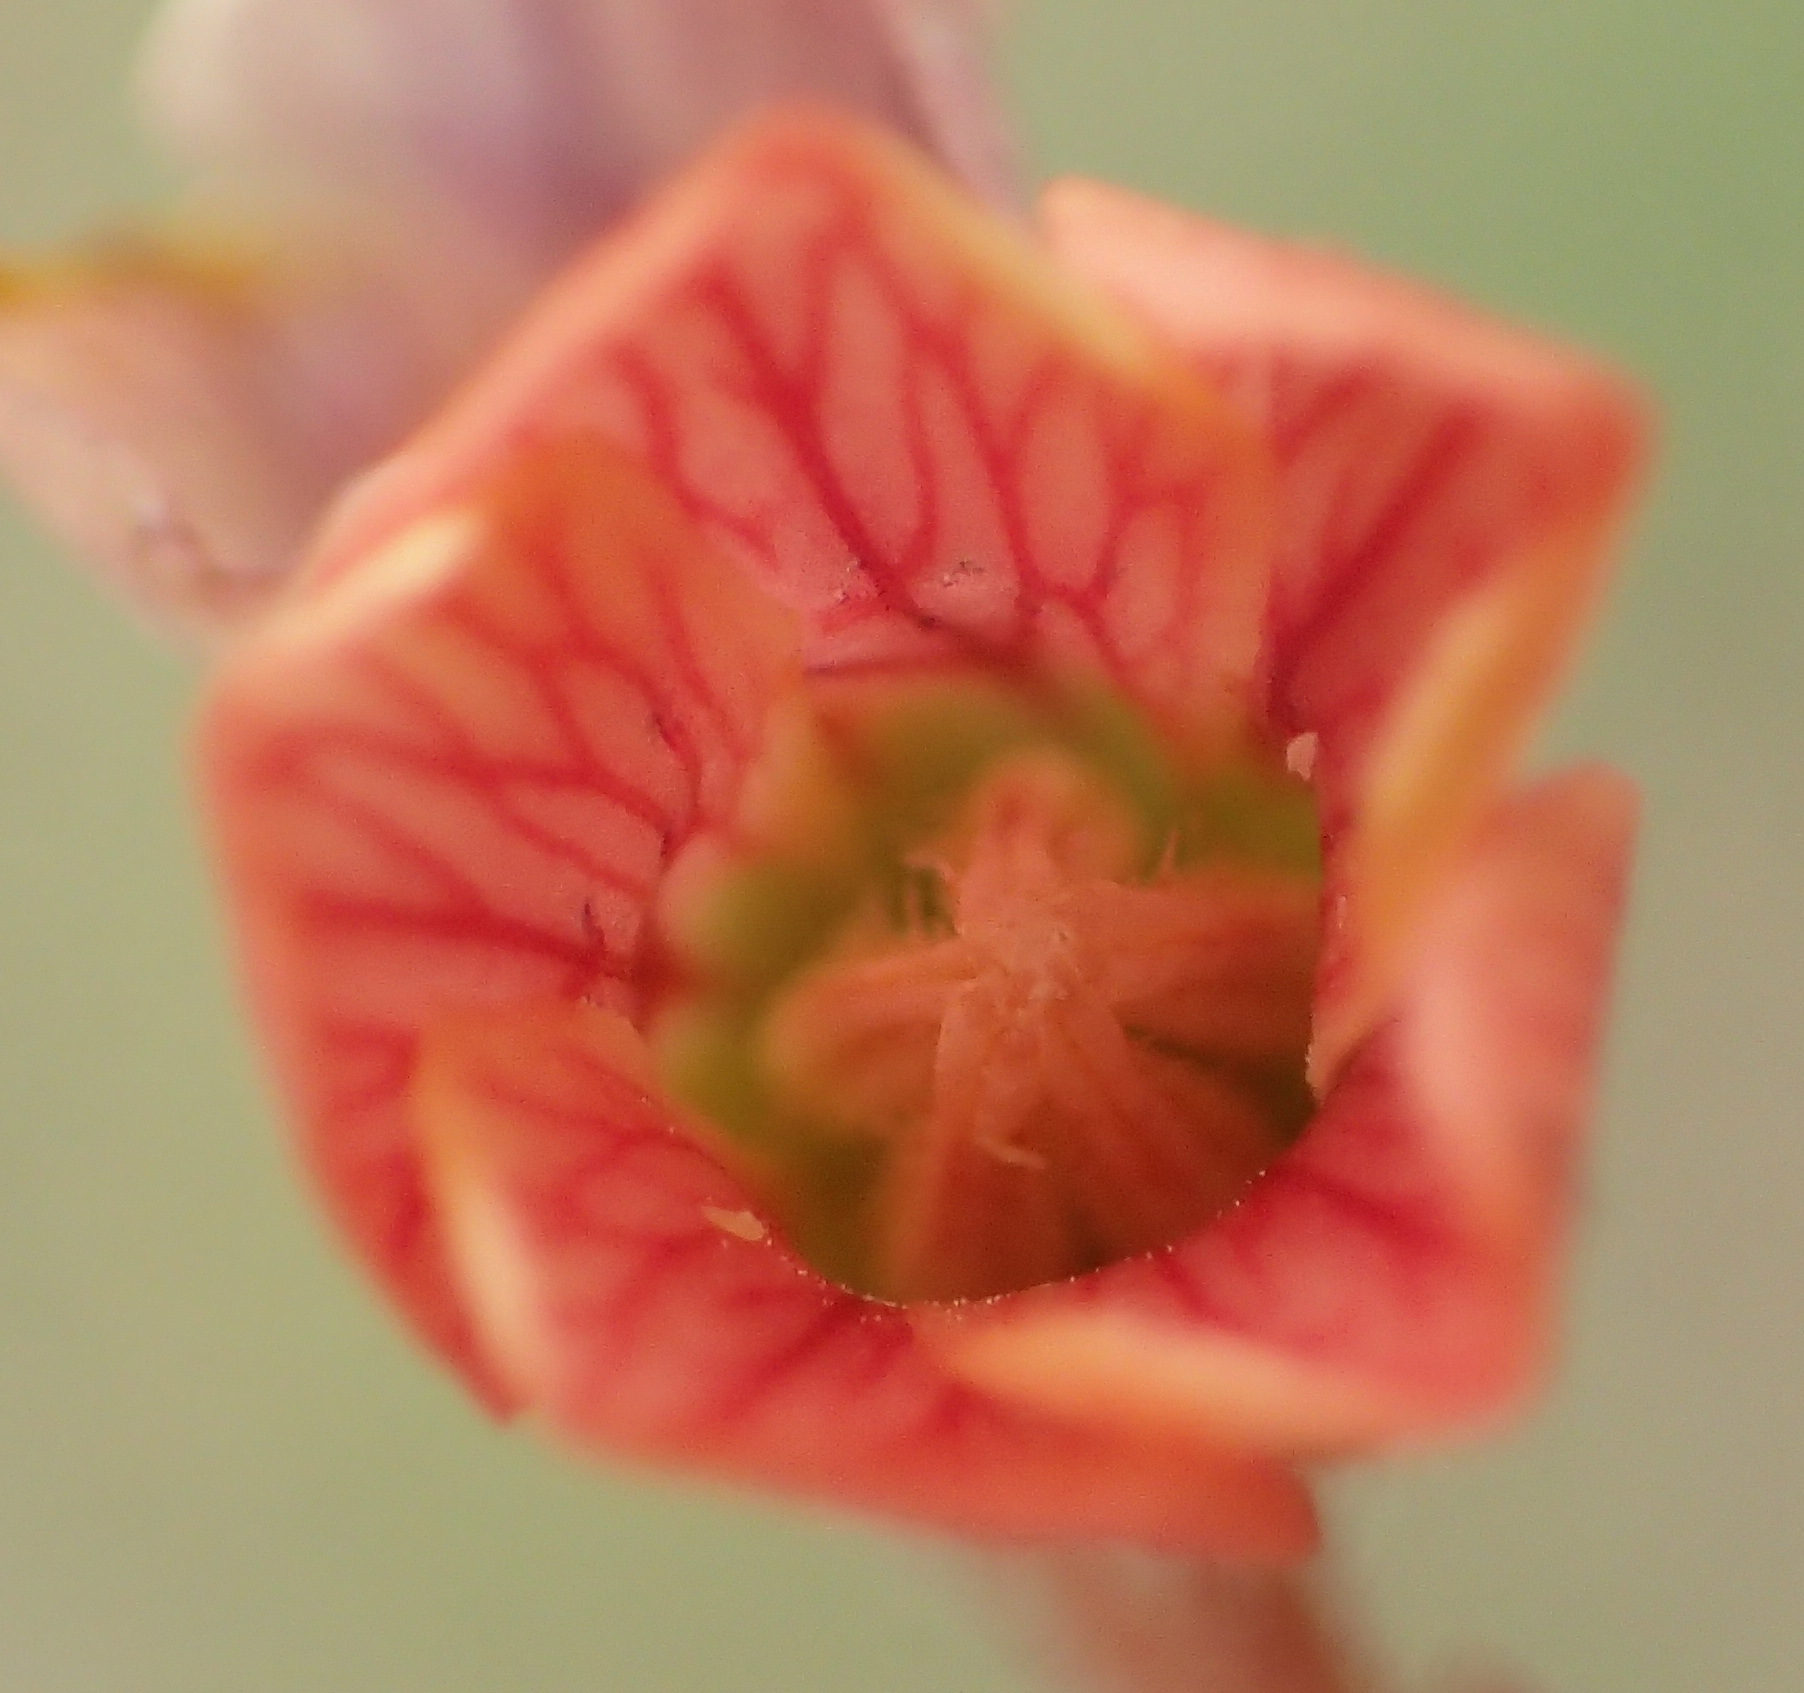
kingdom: Plantae
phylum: Tracheophyta
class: Magnoliopsida
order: Malvales
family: Malvaceae
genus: Hermannia
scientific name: Hermannia depressa
